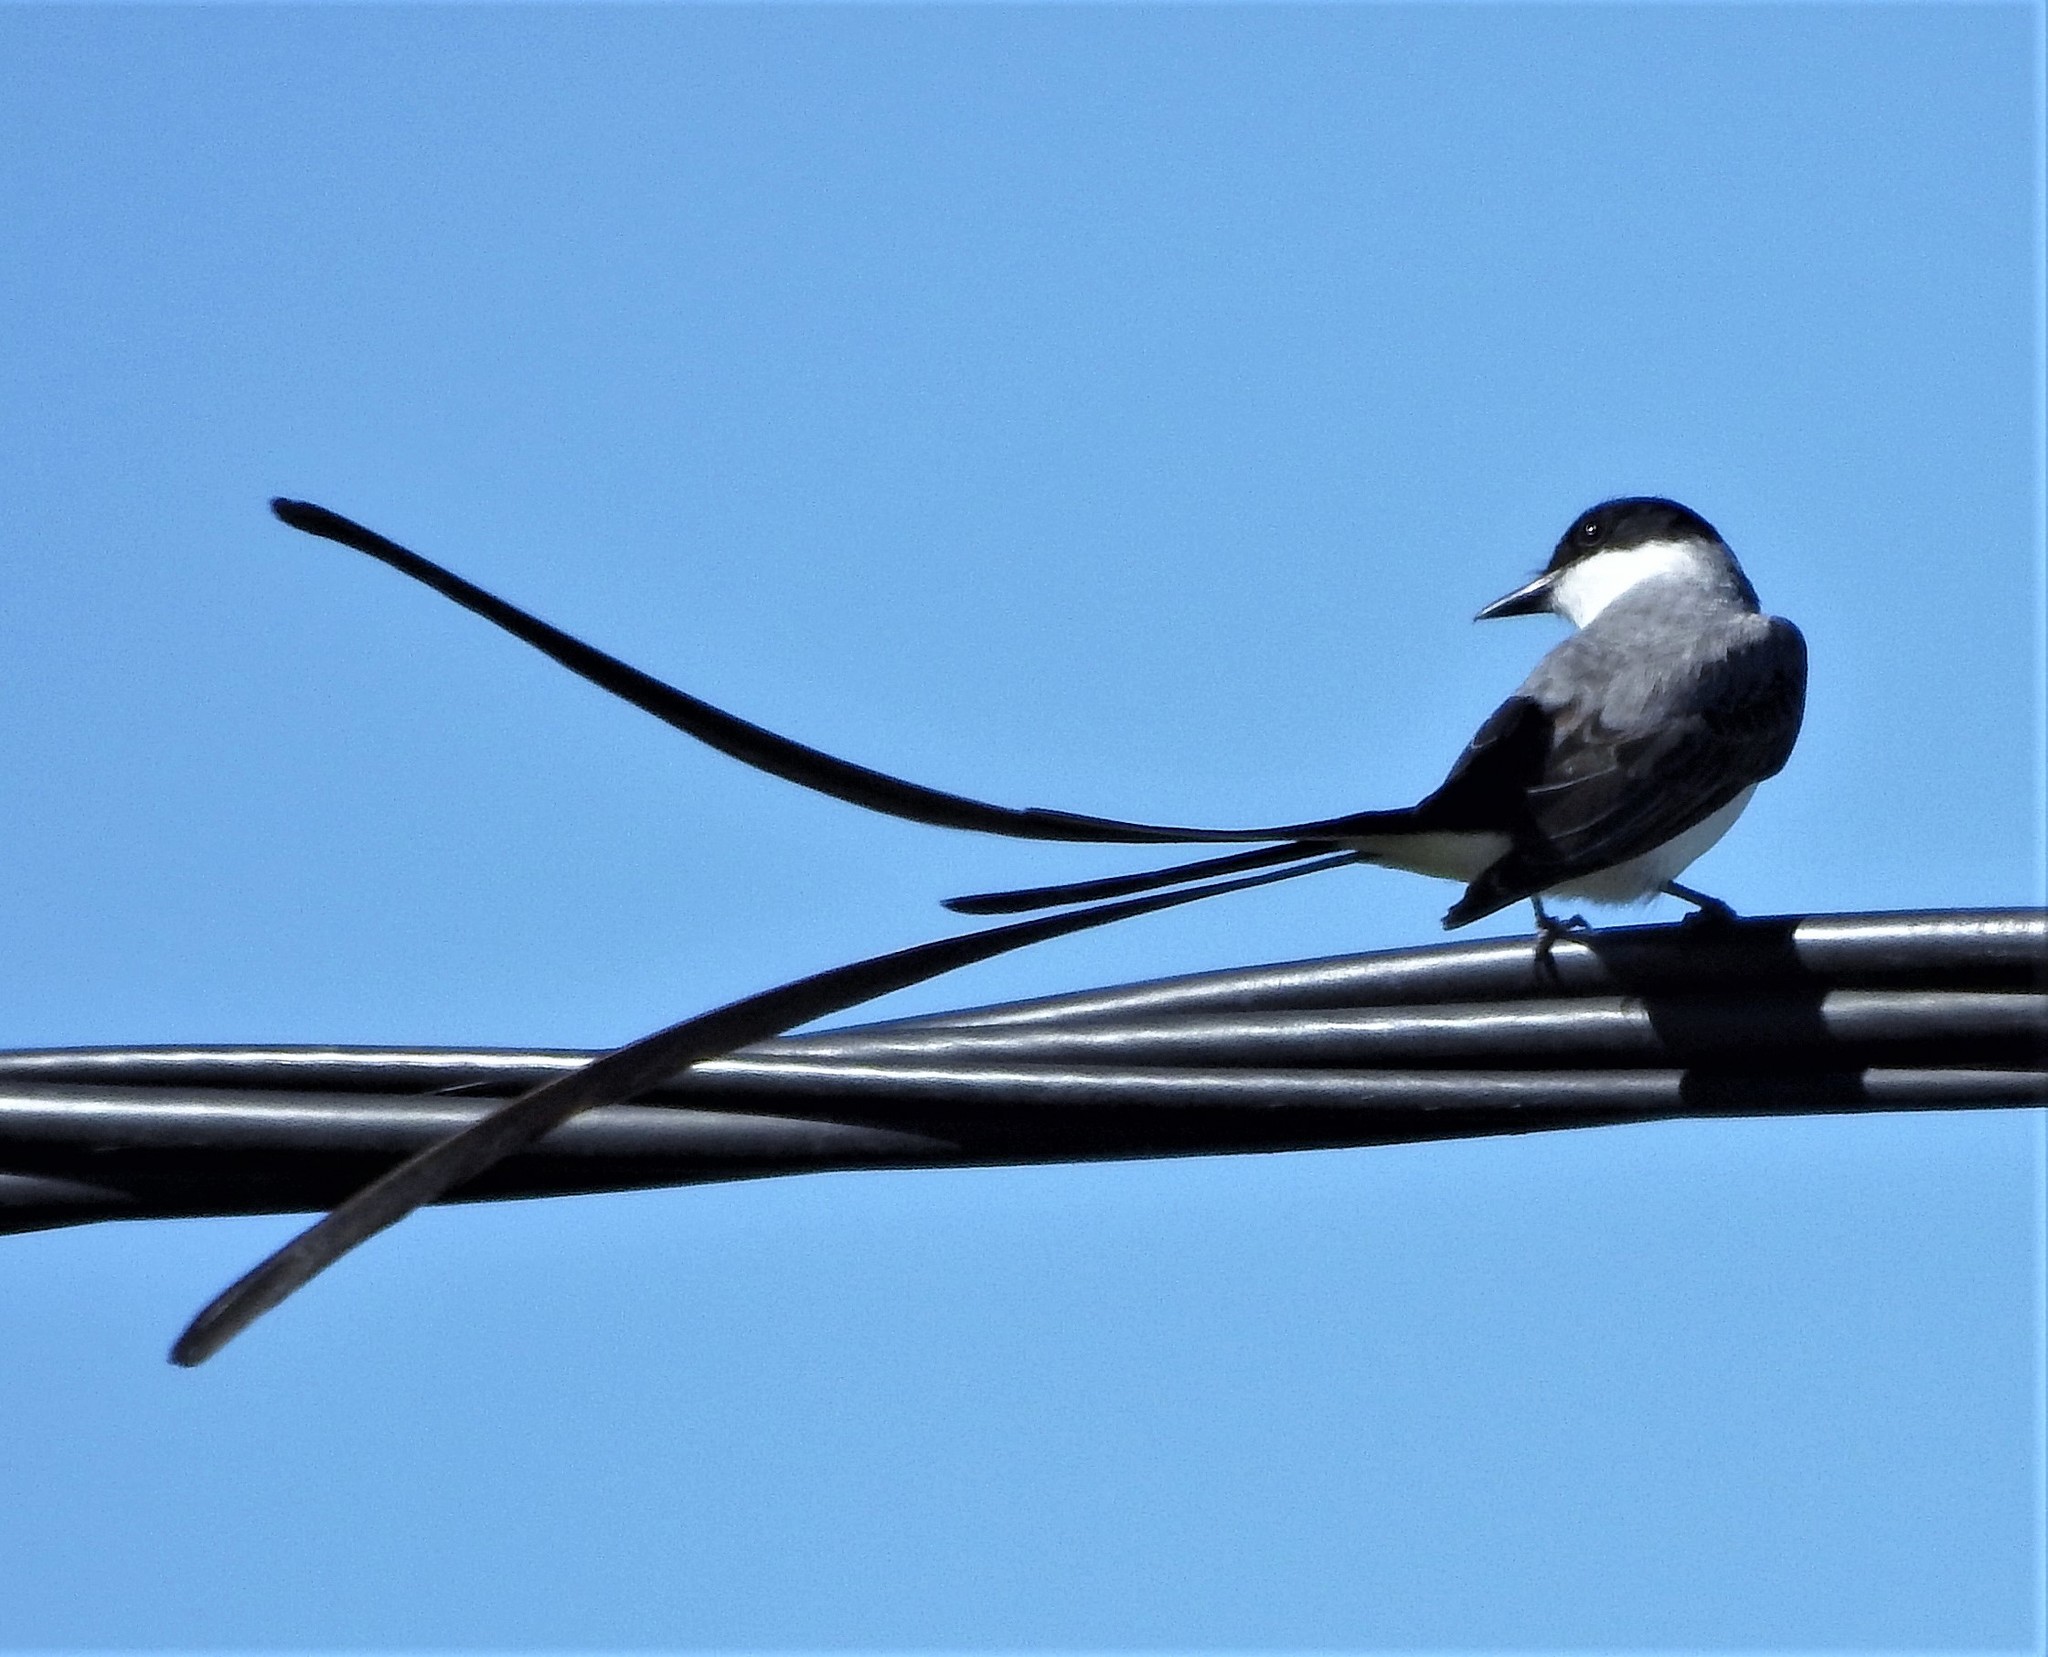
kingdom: Animalia
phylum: Chordata
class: Aves
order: Passeriformes
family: Tyrannidae
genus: Tyrannus
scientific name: Tyrannus savana
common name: Fork-tailed flycatcher
